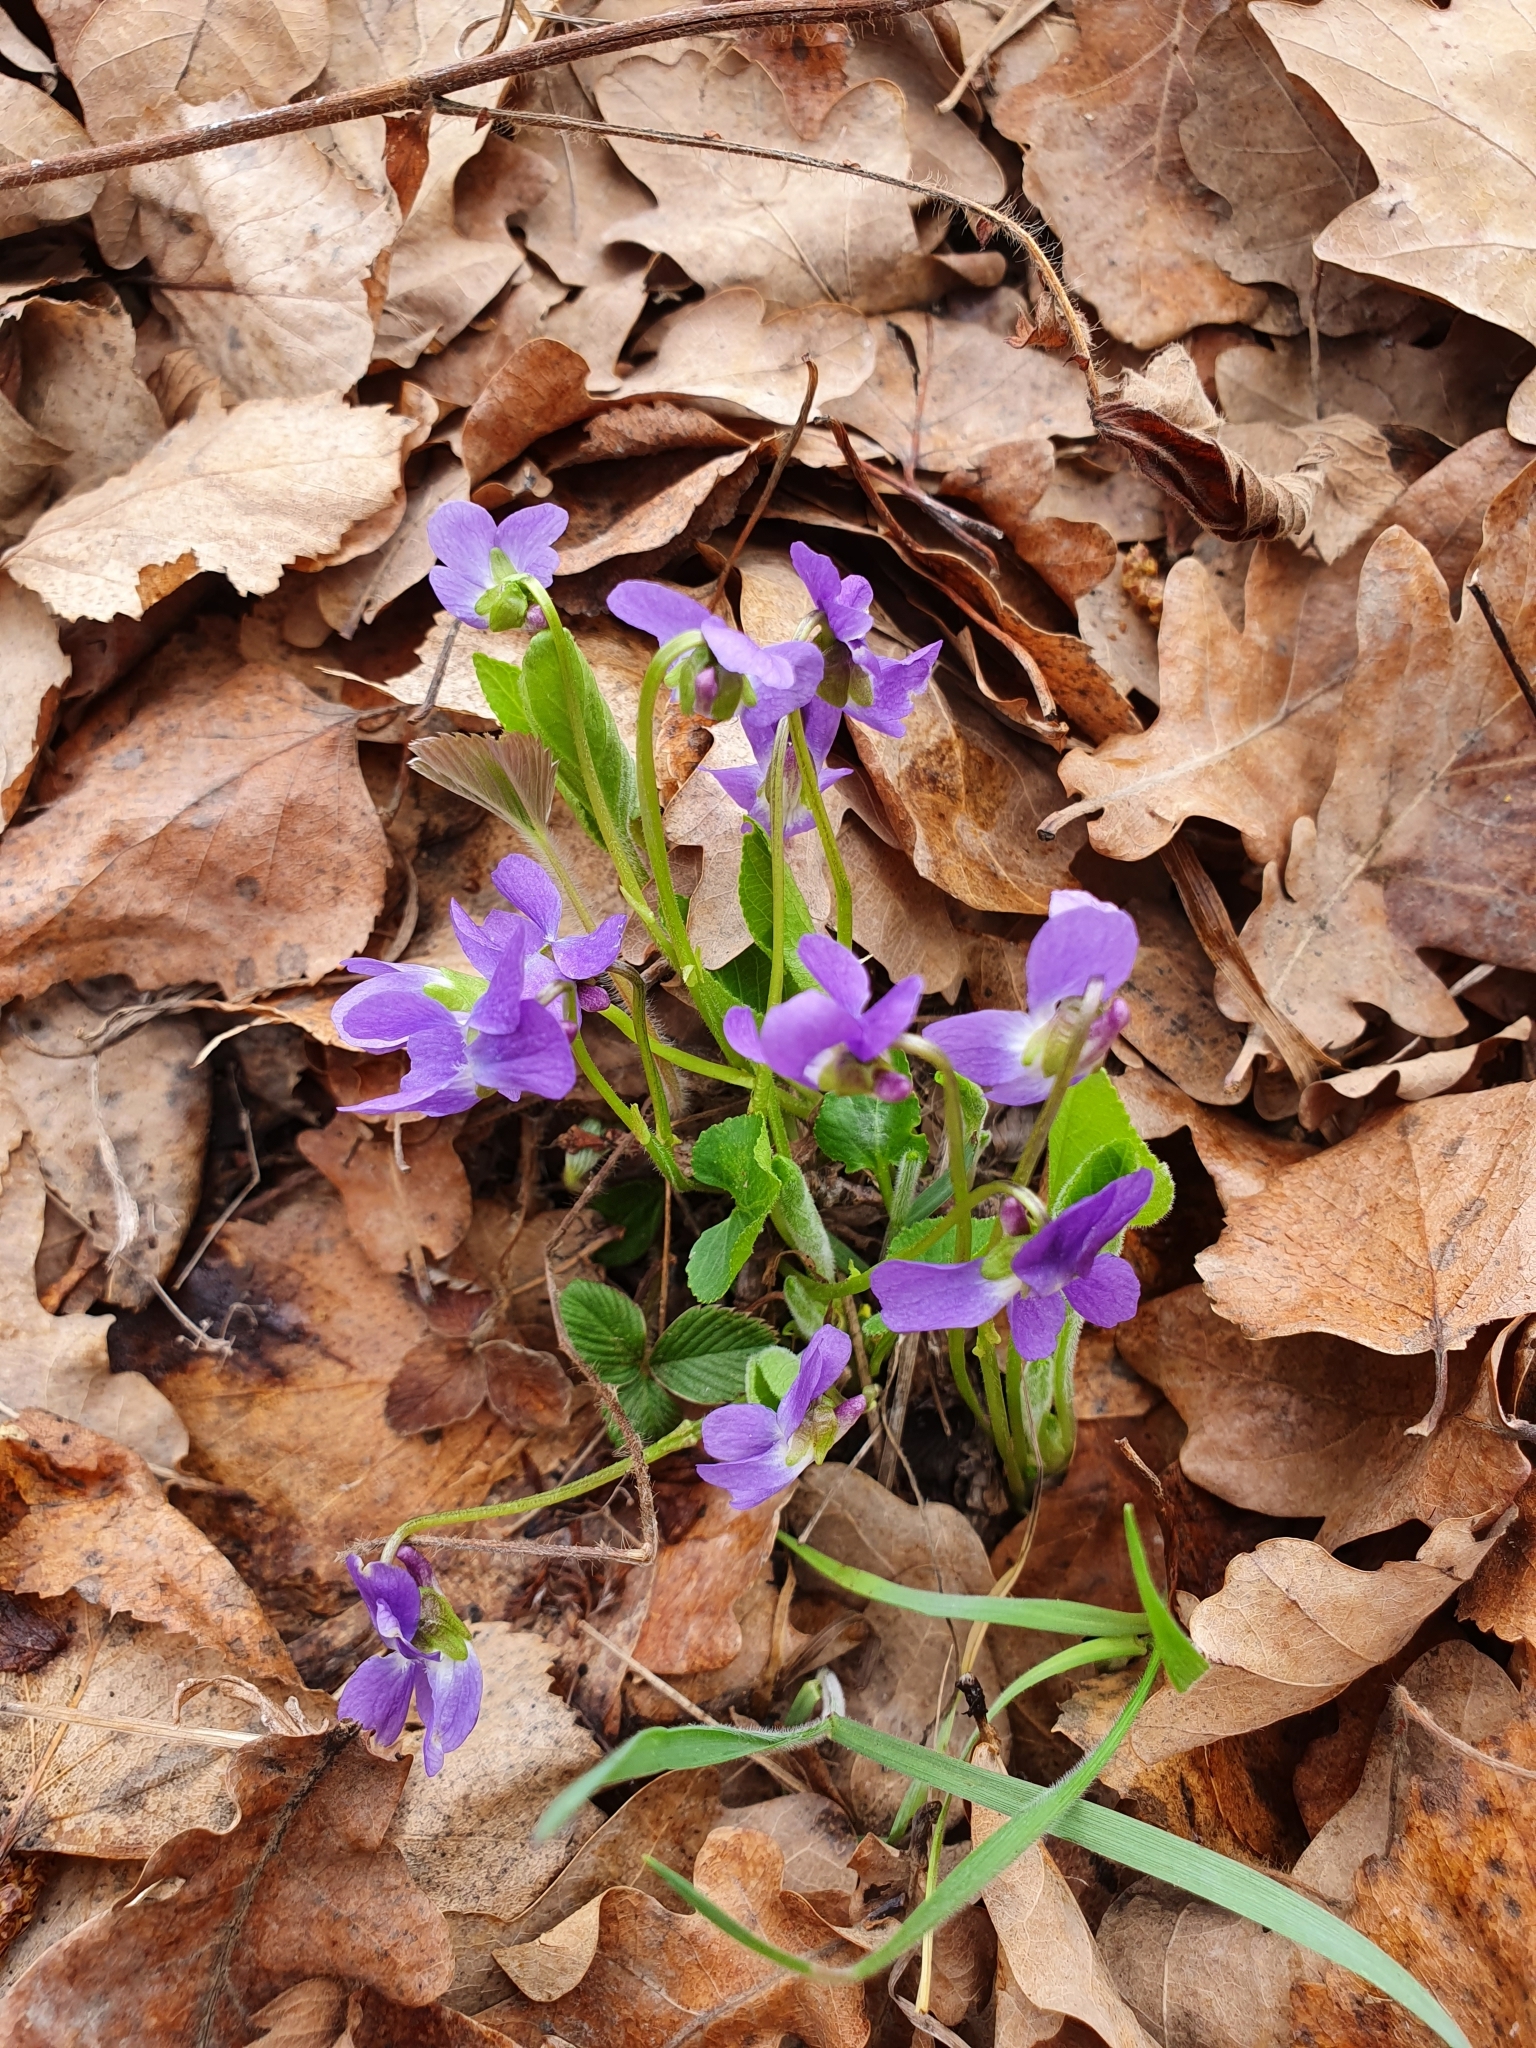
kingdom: Plantae
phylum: Tracheophyta
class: Magnoliopsida
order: Malpighiales
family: Violaceae
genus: Viola
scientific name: Viola hirta
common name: Hairy violet
